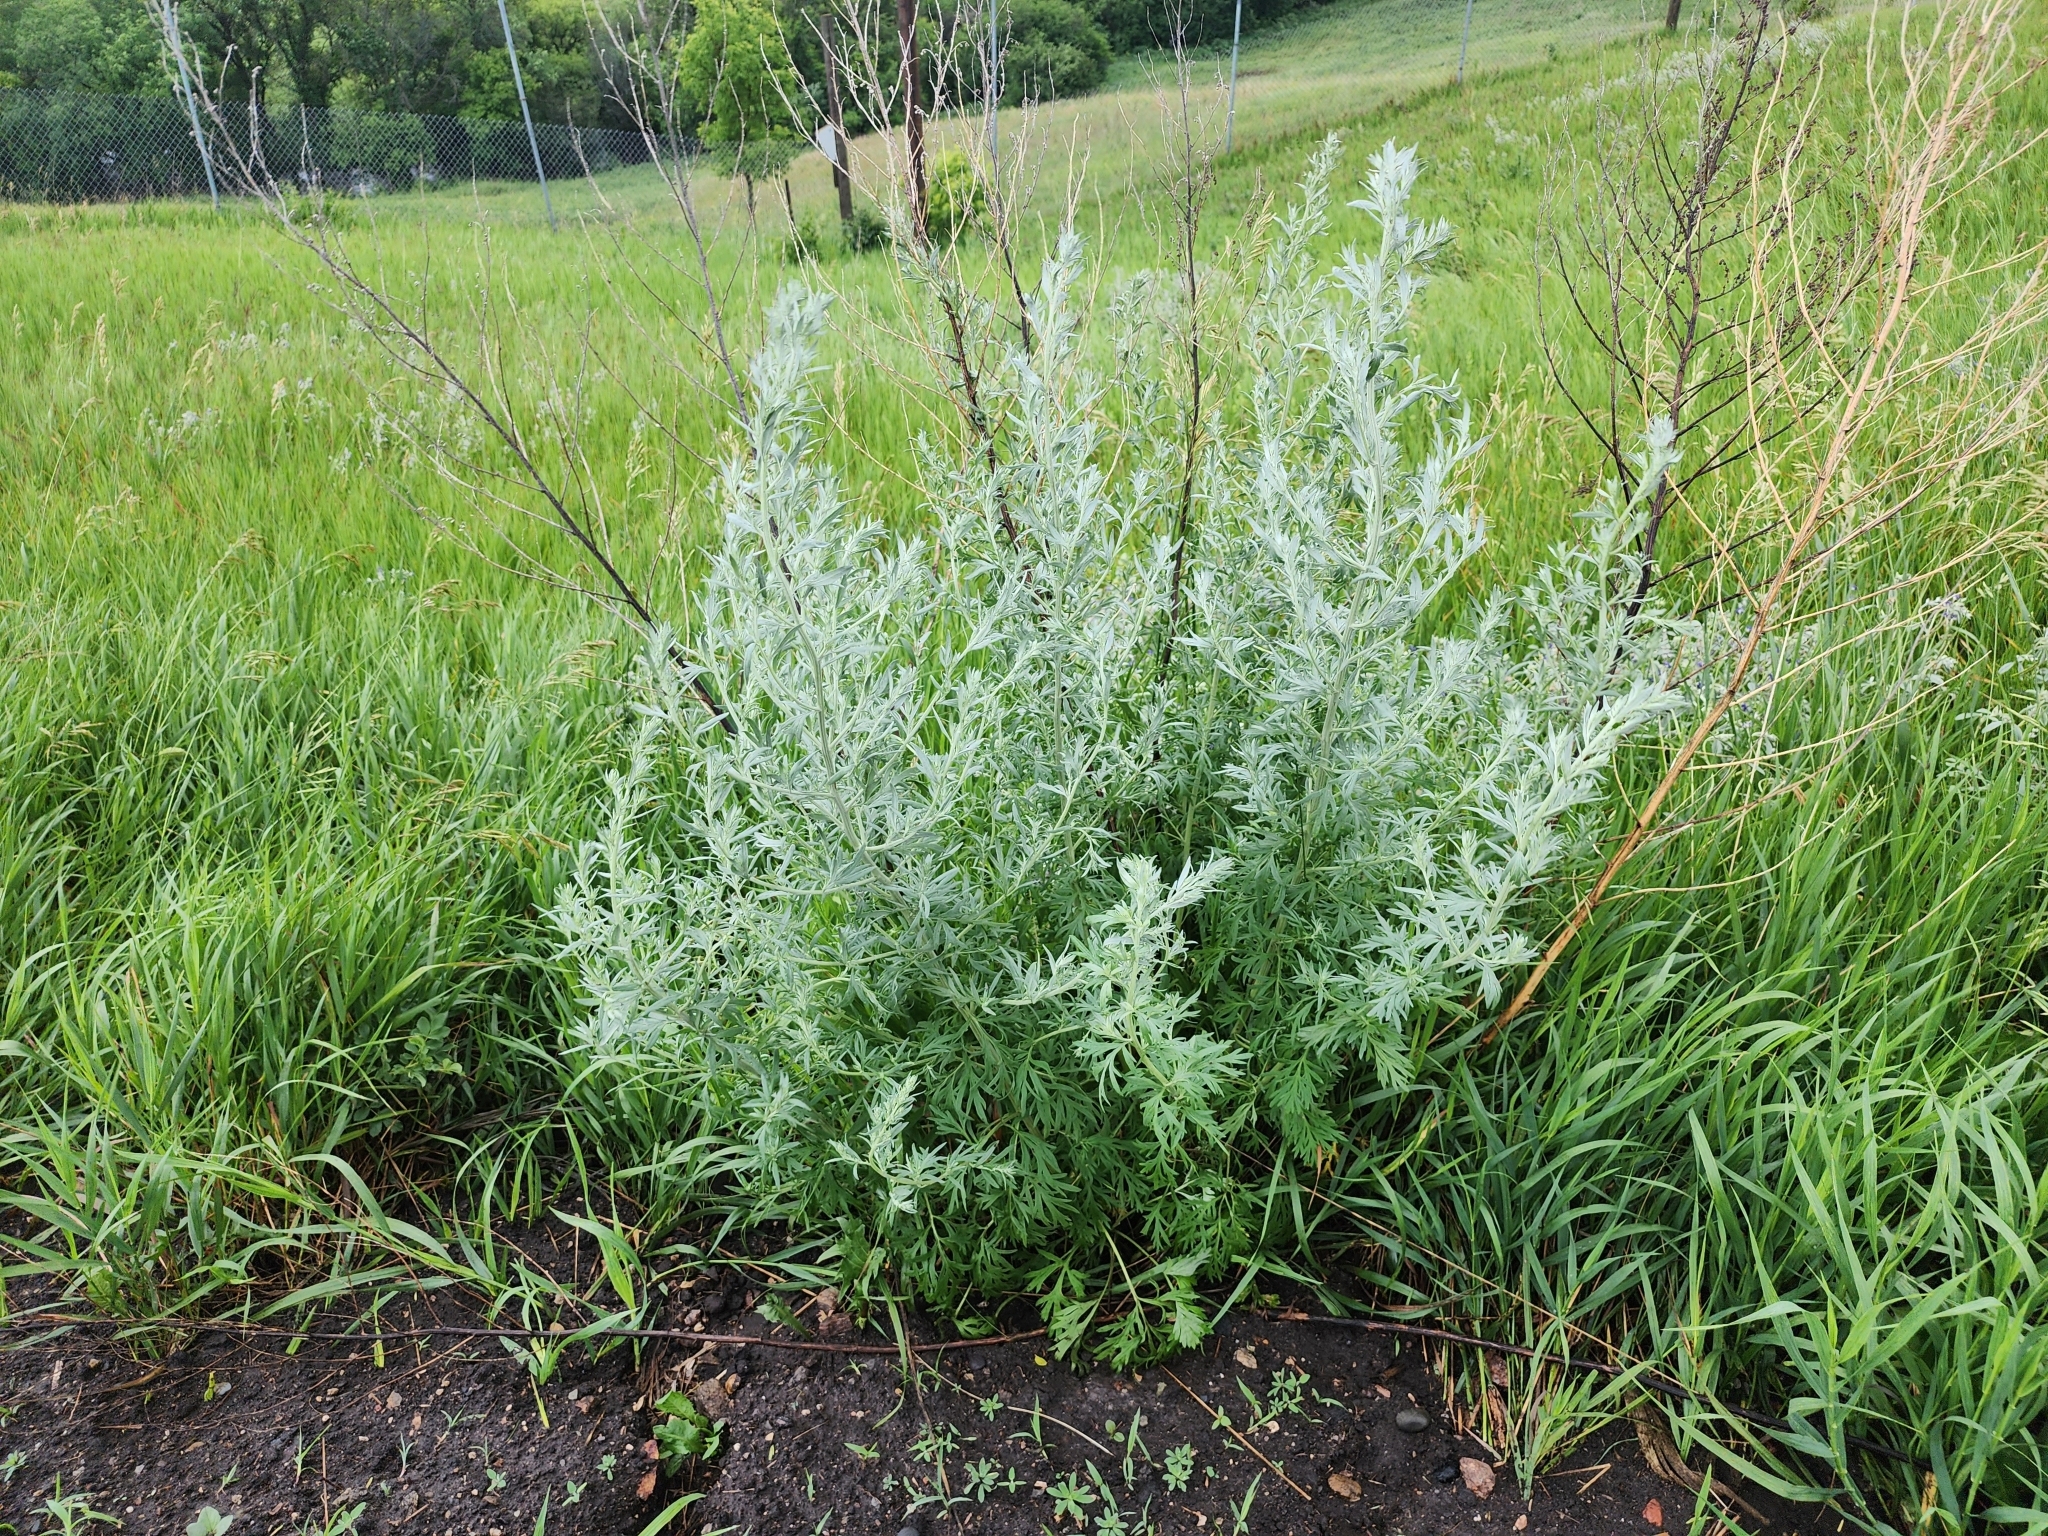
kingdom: Plantae
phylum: Tracheophyta
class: Magnoliopsida
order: Asterales
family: Asteraceae
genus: Artemisia
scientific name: Artemisia absinthium
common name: Wormwood
